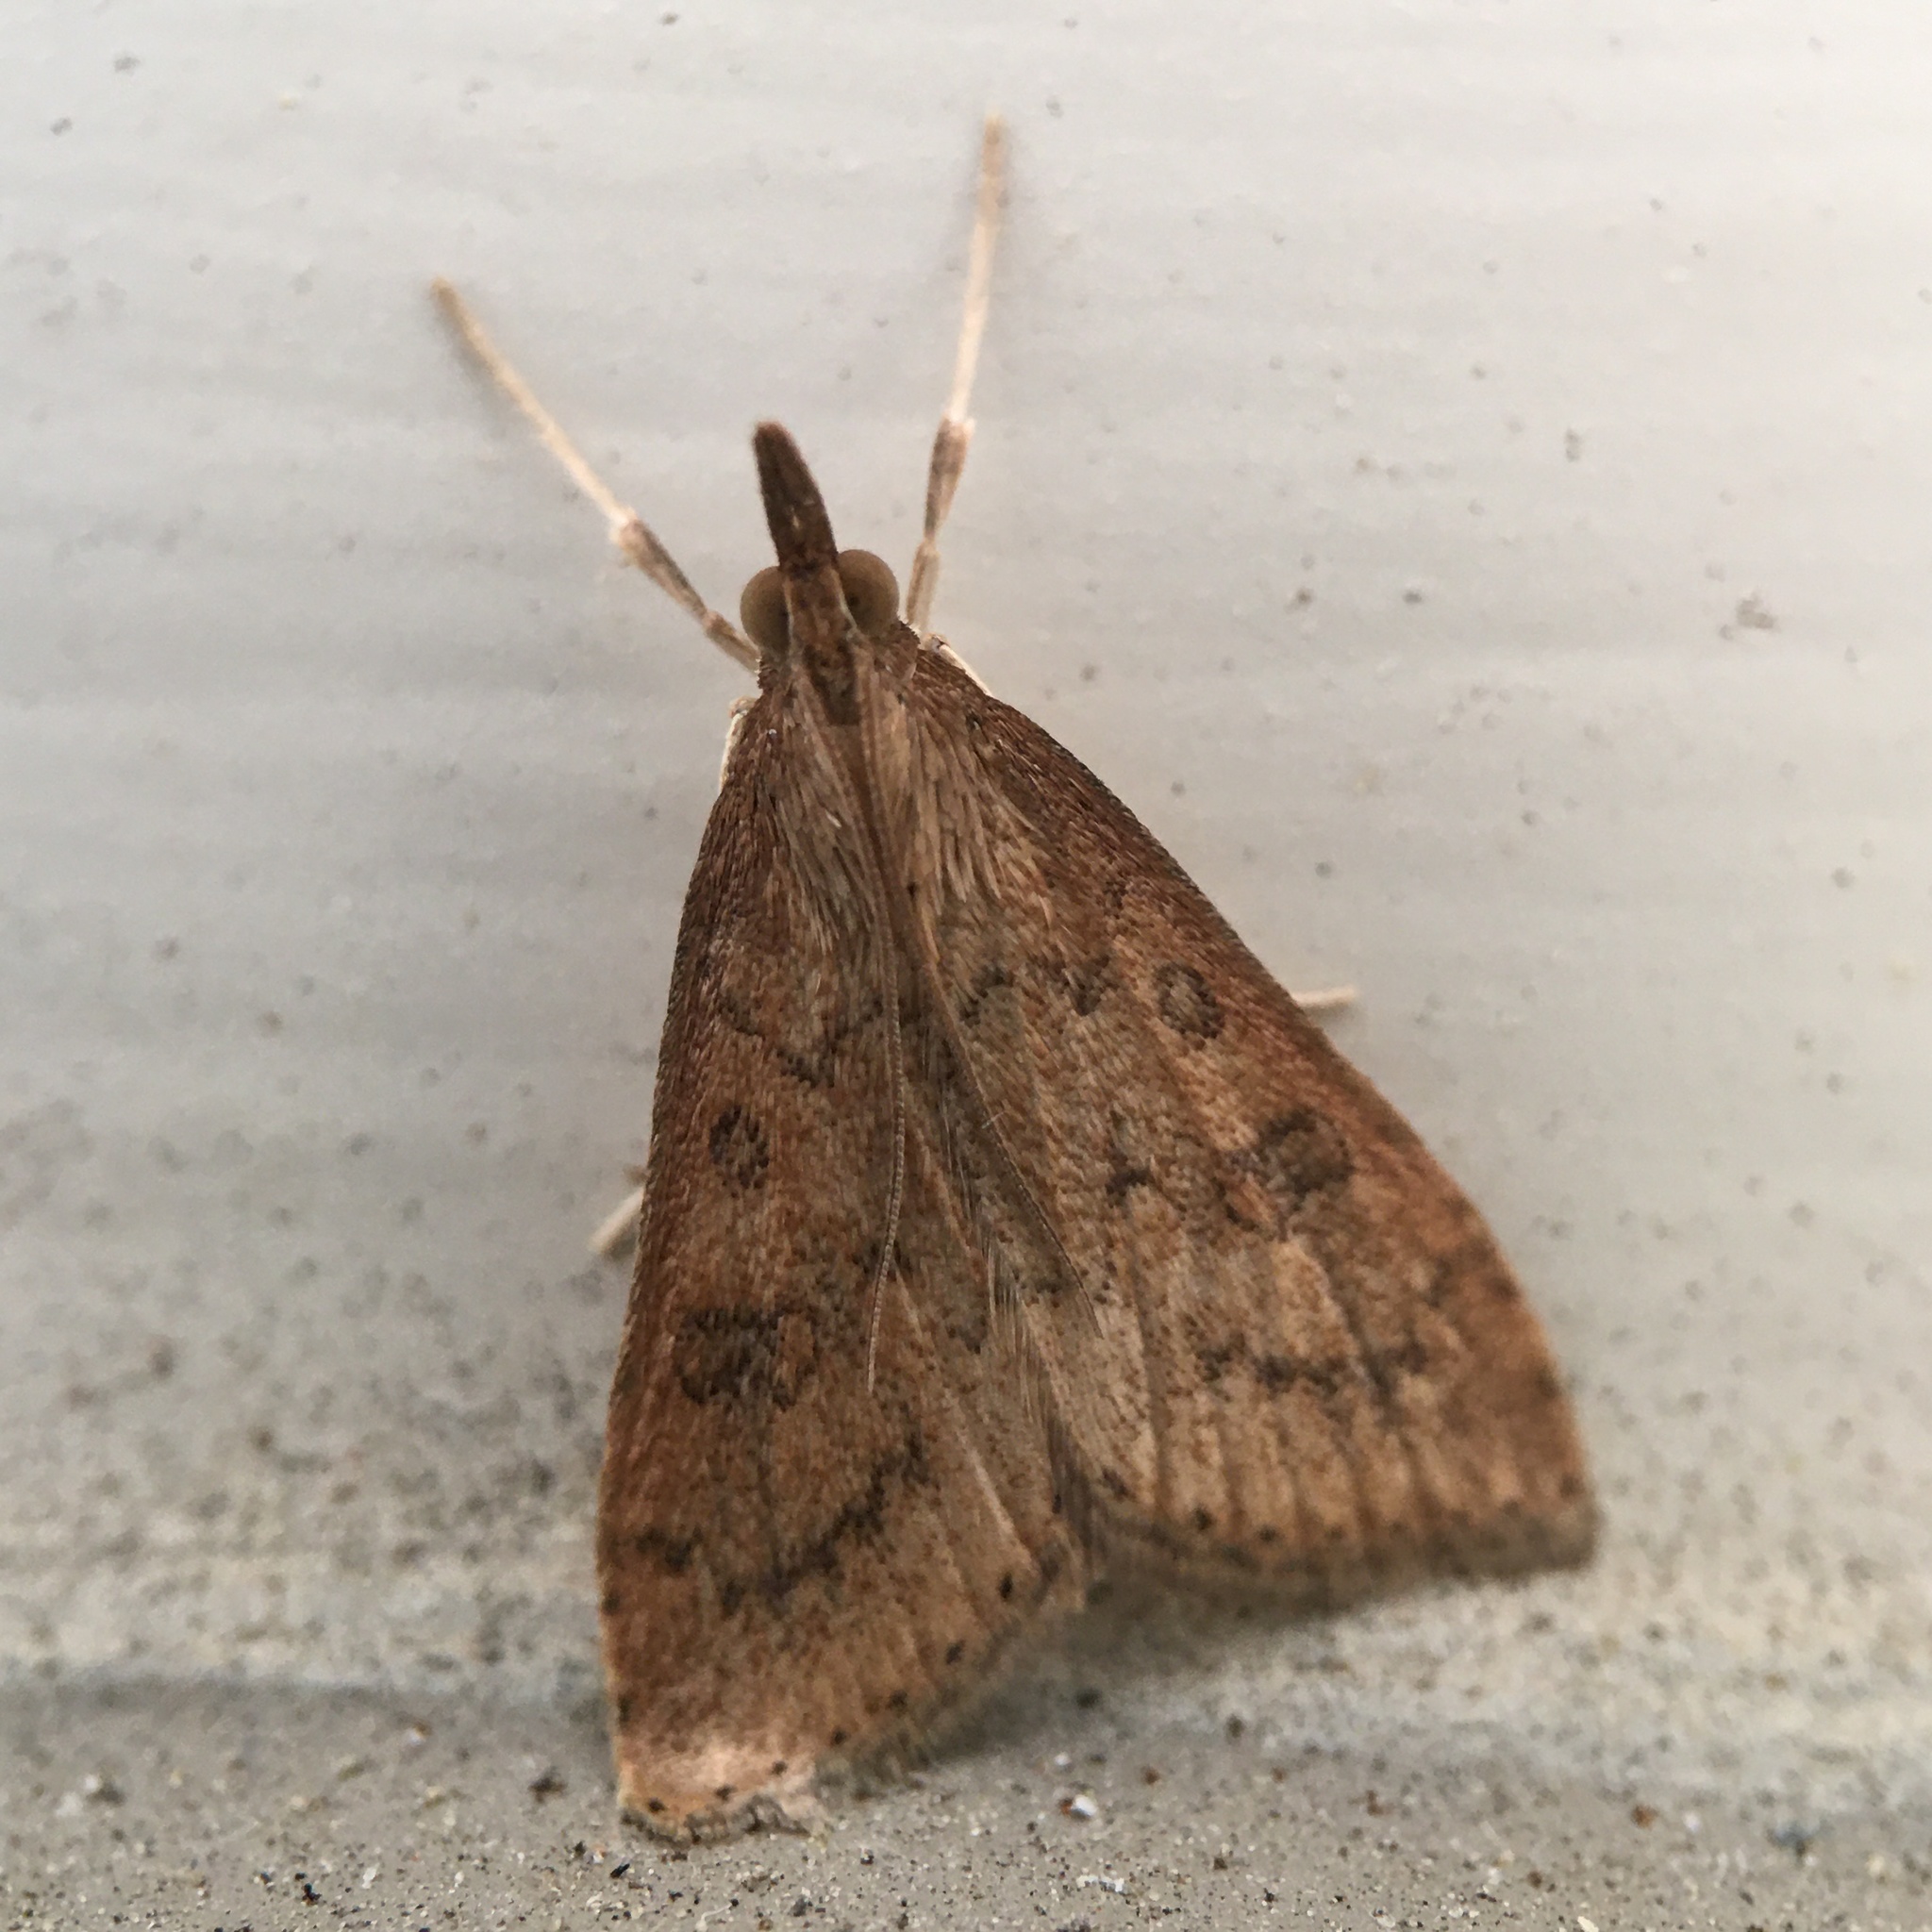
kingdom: Animalia
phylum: Arthropoda
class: Insecta
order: Lepidoptera
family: Crambidae
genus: Udea
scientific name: Udea rubigalis
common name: Celery leaftier moth
